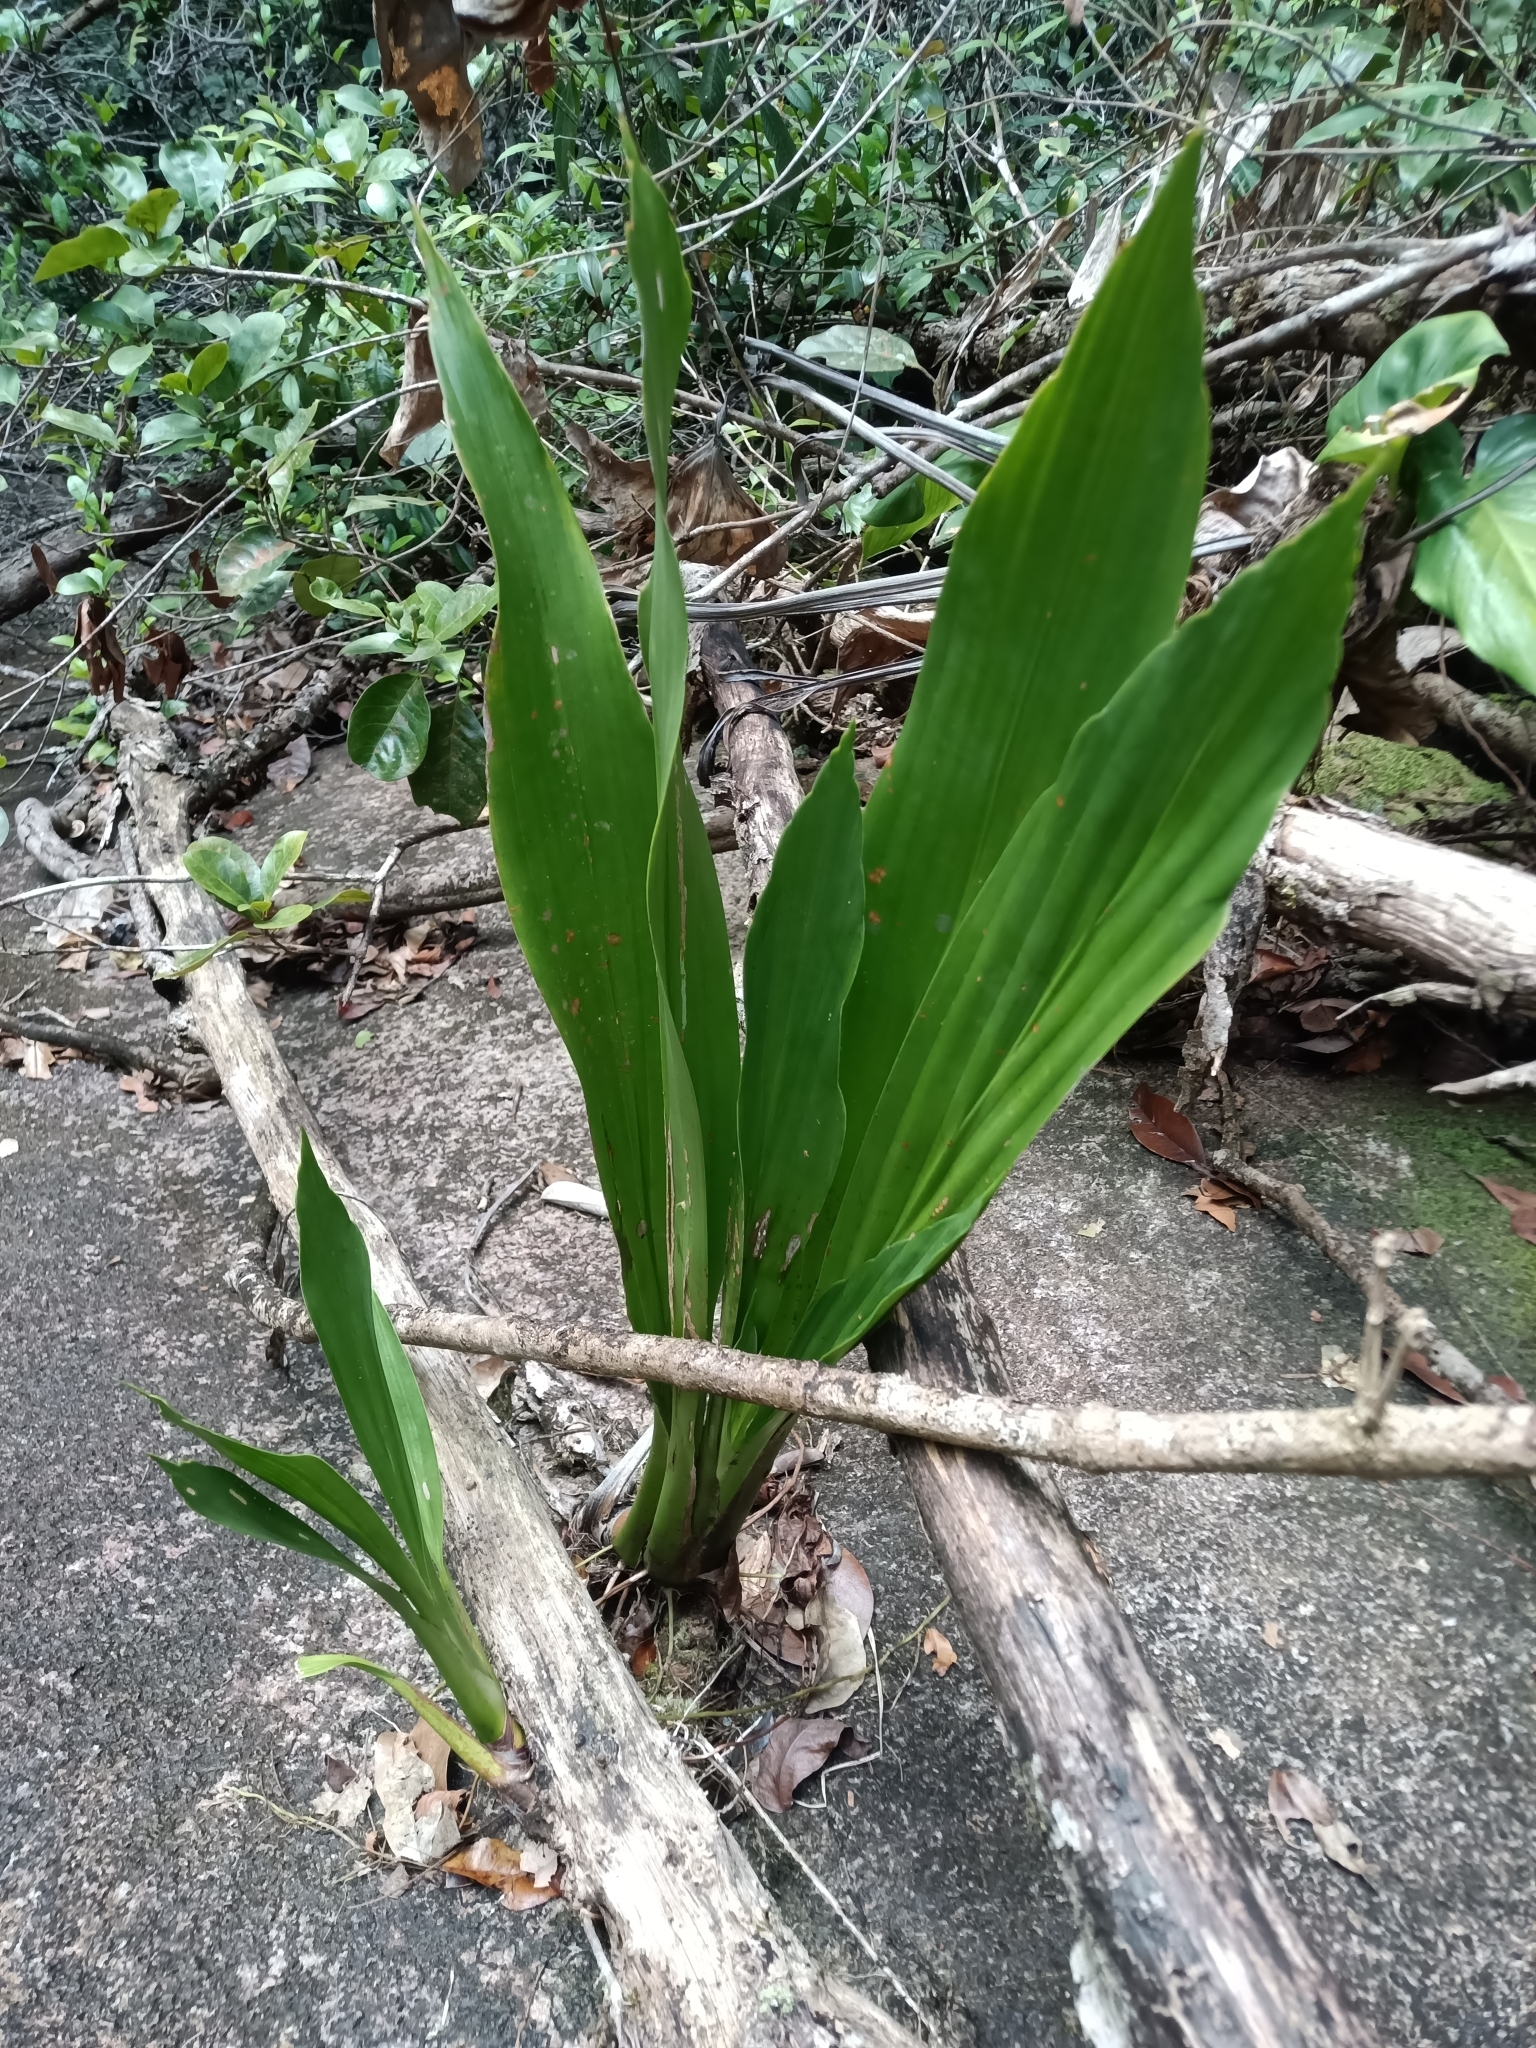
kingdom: Plantae
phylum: Tracheophyta
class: Liliopsida
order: Pandanales
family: Cyclanthaceae
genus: Ludovia
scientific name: Ludovia lancifolia
